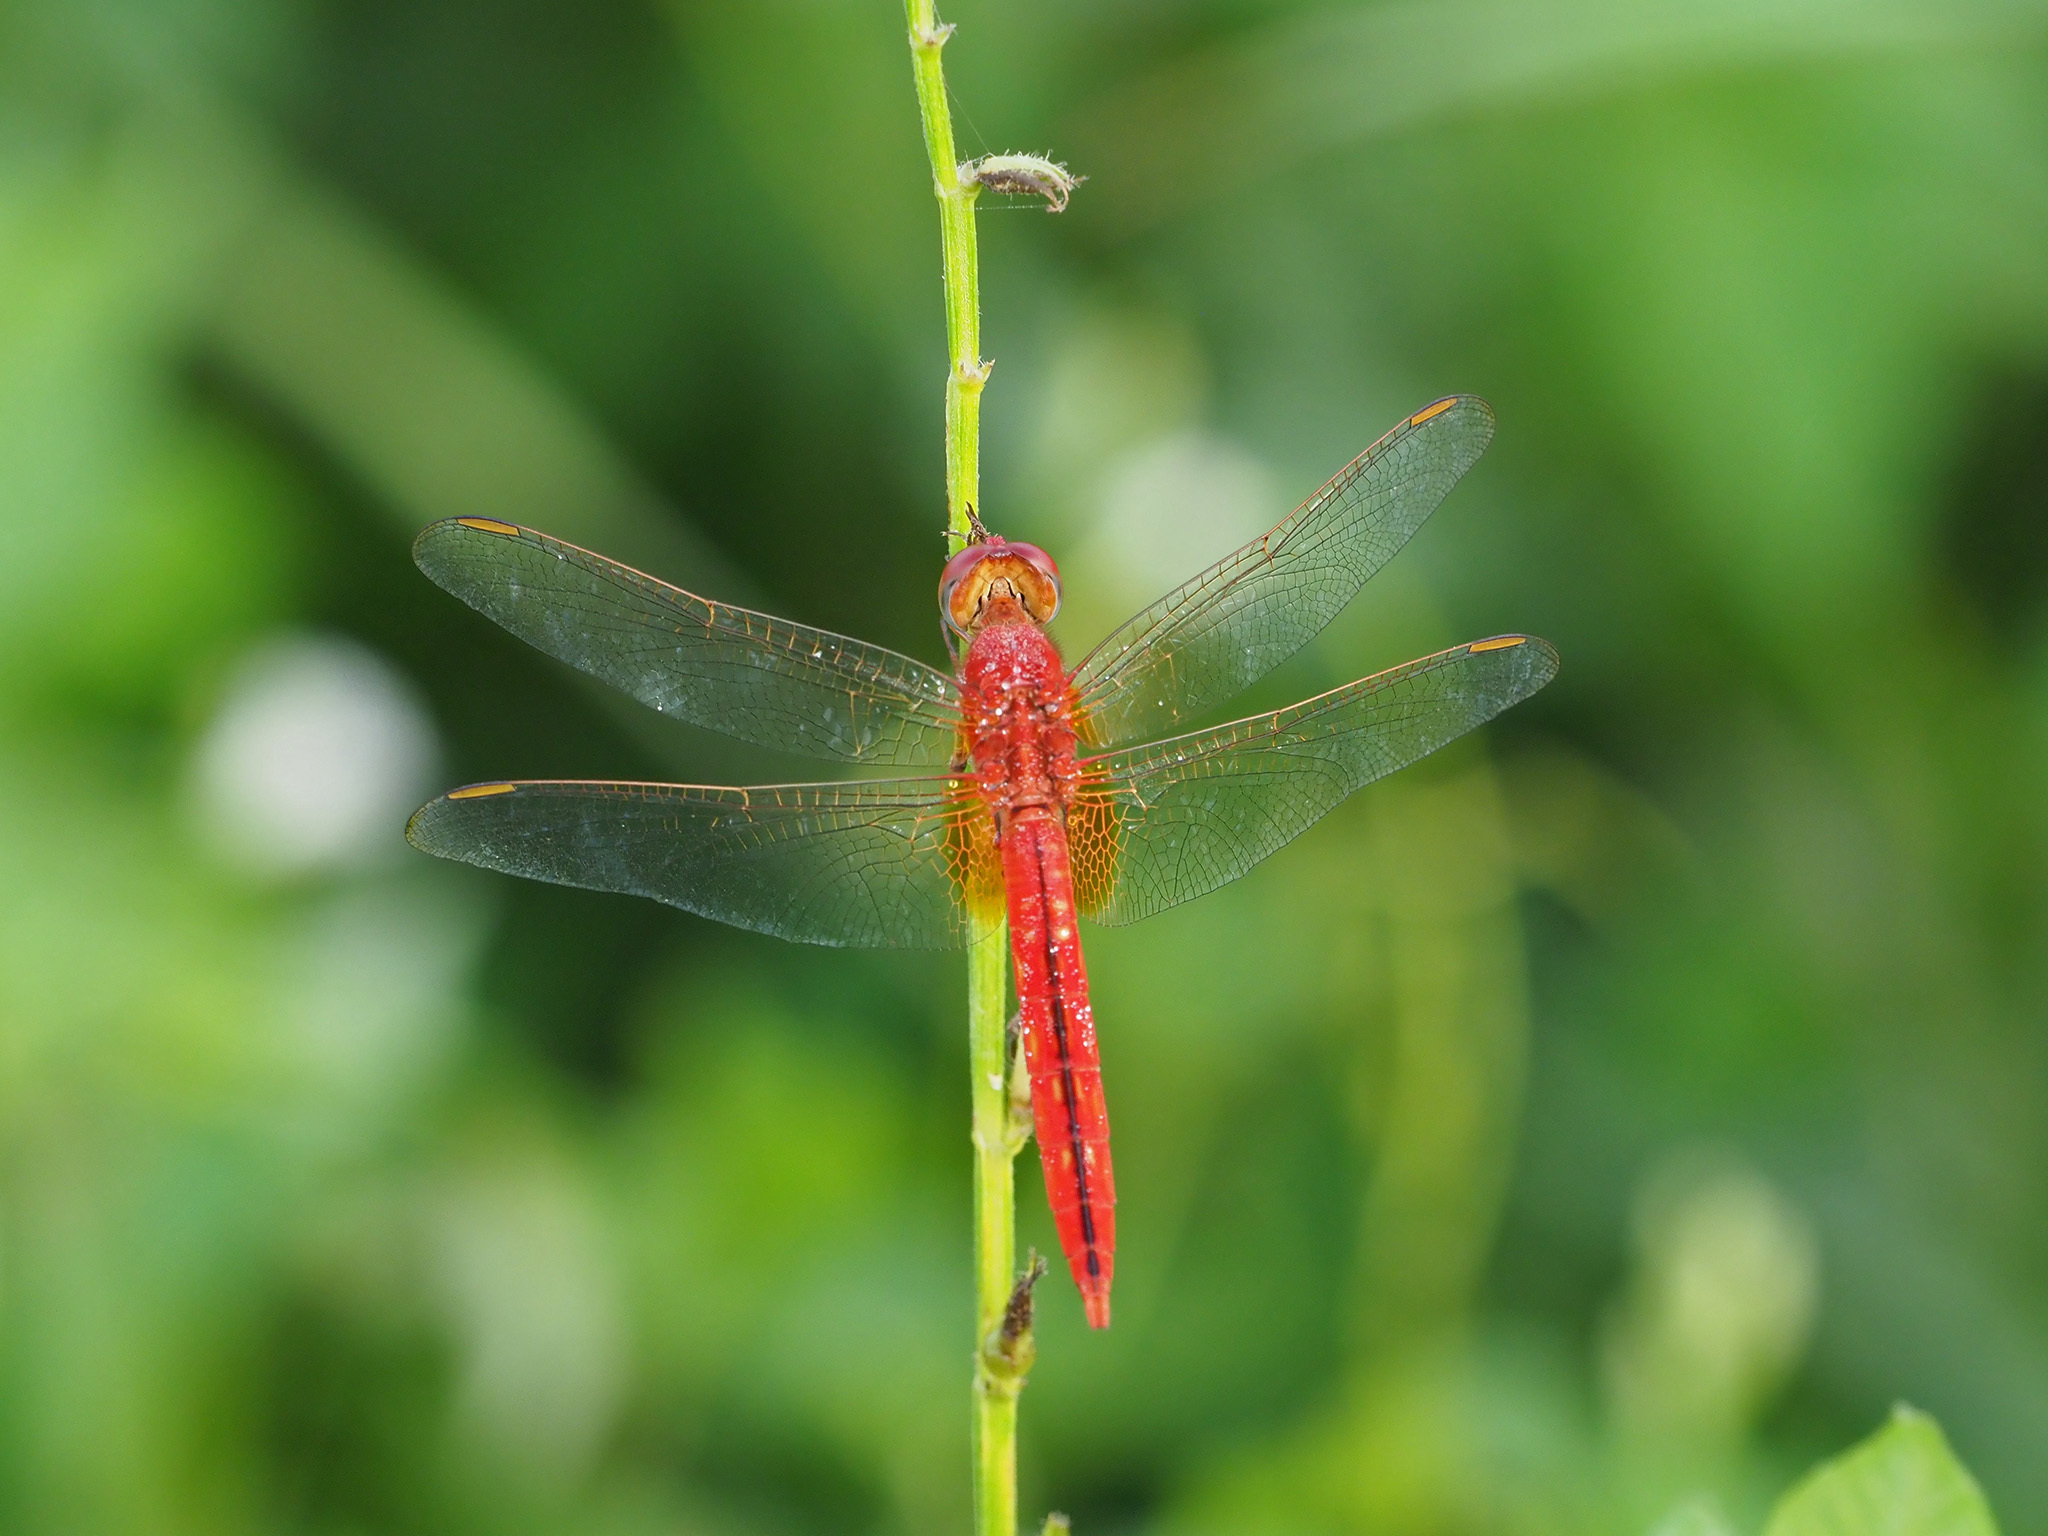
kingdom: Animalia
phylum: Arthropoda
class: Insecta
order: Odonata
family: Libellulidae
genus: Crocothemis
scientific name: Crocothemis servilia
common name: Scarlet skimmer
